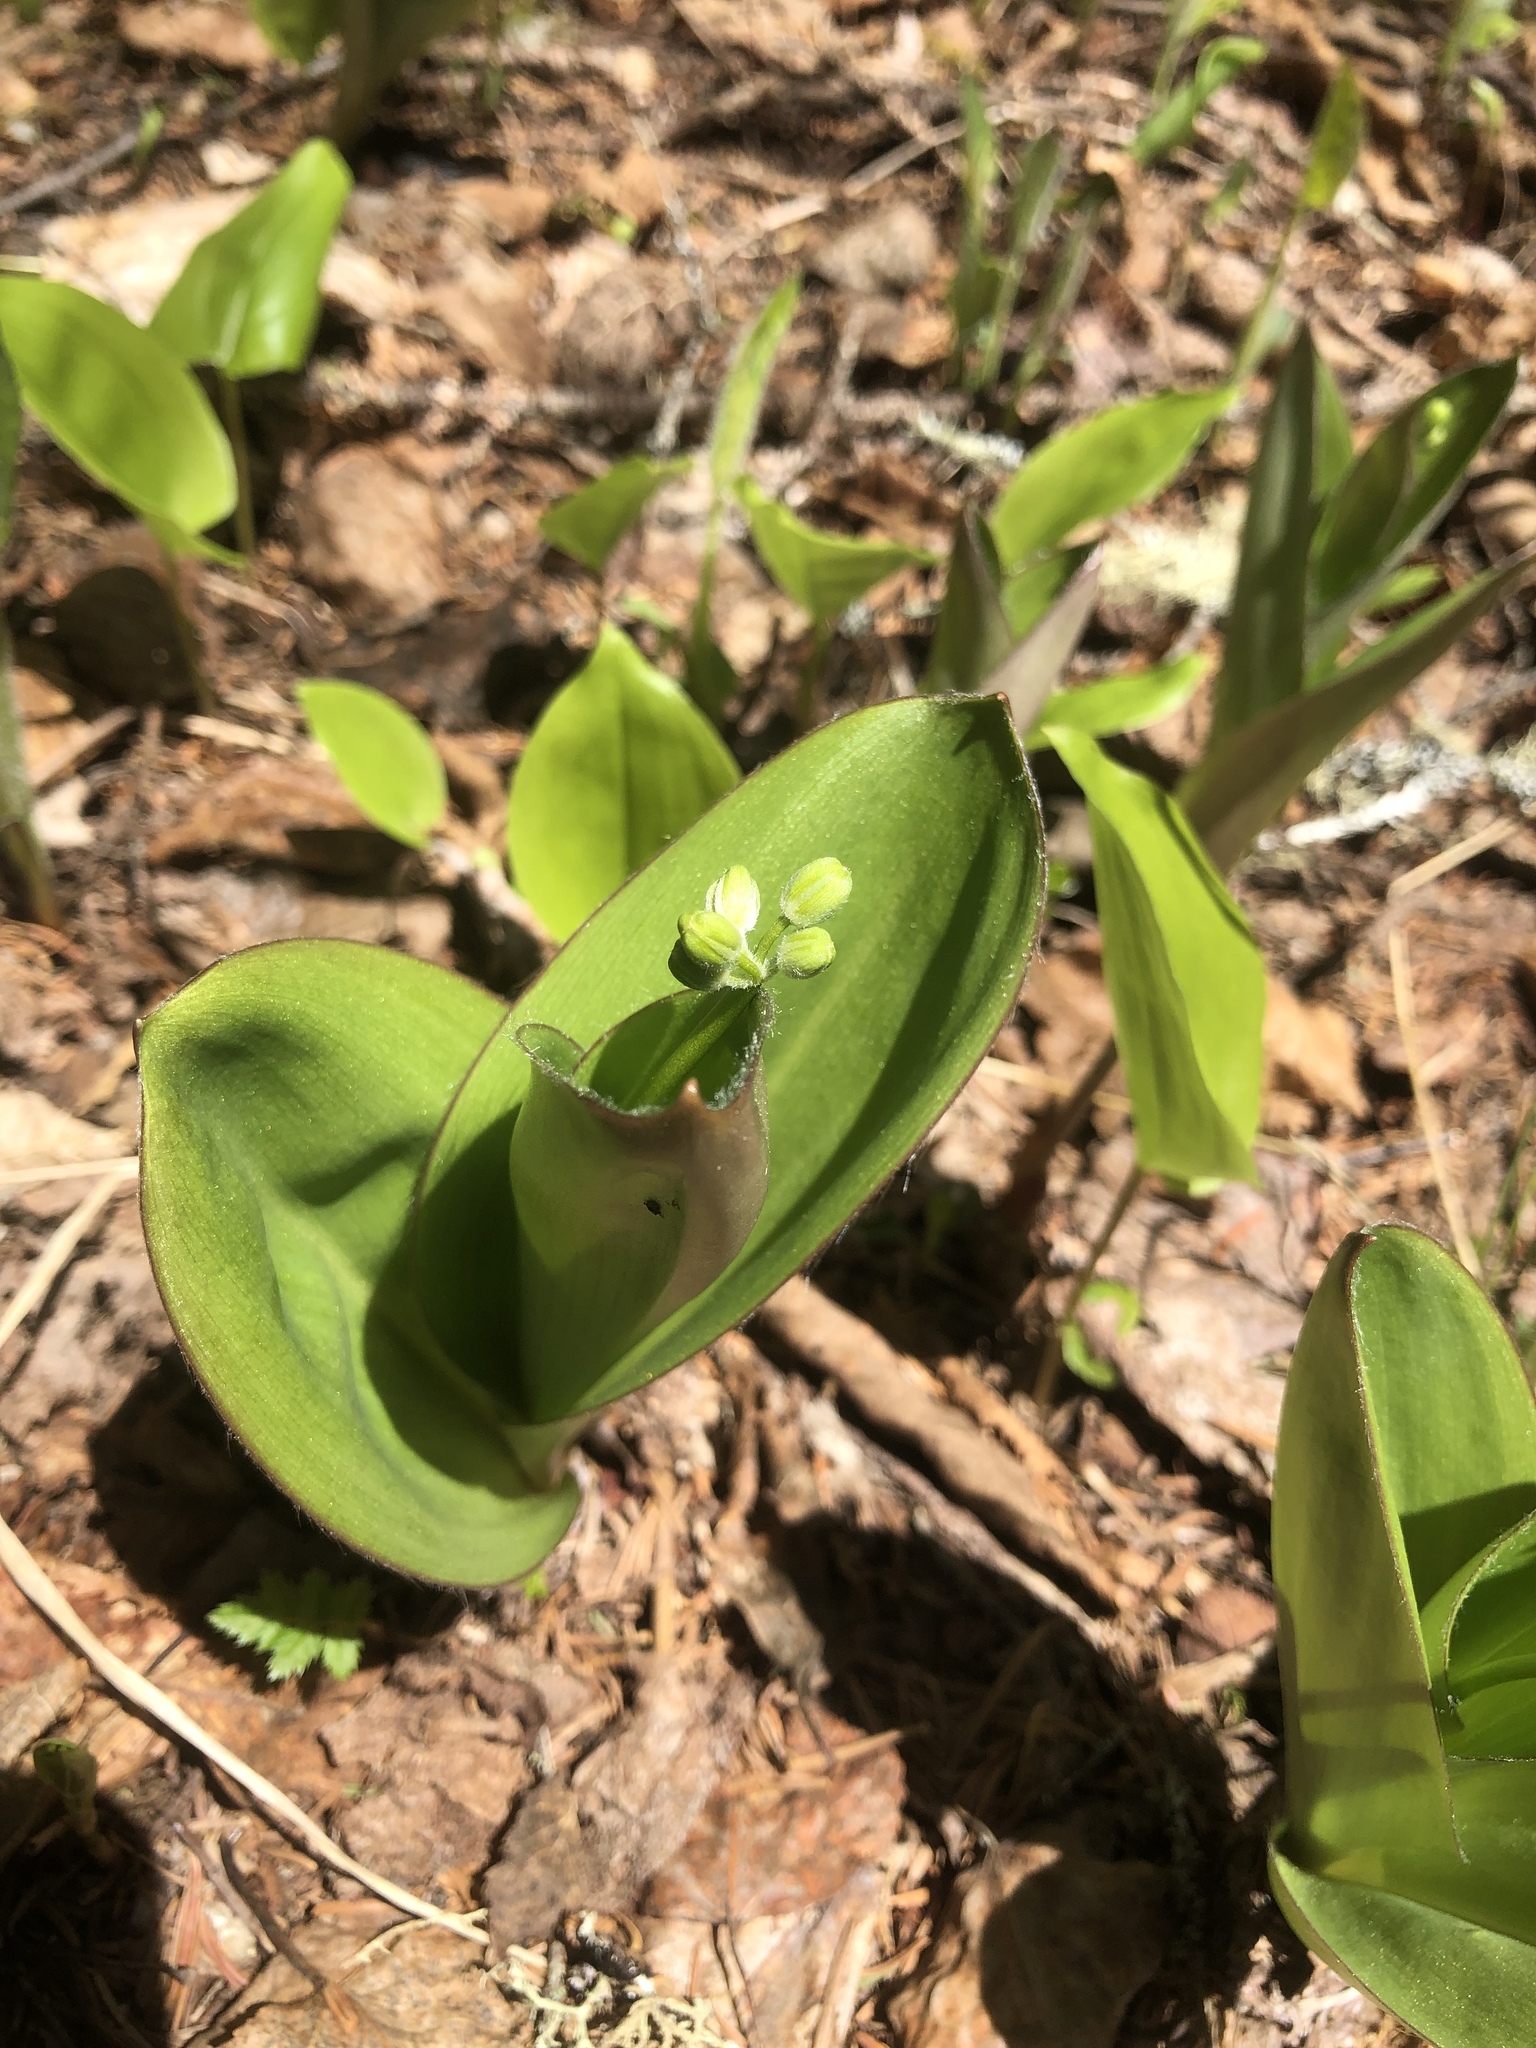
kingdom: Plantae
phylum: Tracheophyta
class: Liliopsida
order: Liliales
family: Liliaceae
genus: Clintonia
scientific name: Clintonia borealis
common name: Yellow clintonia
